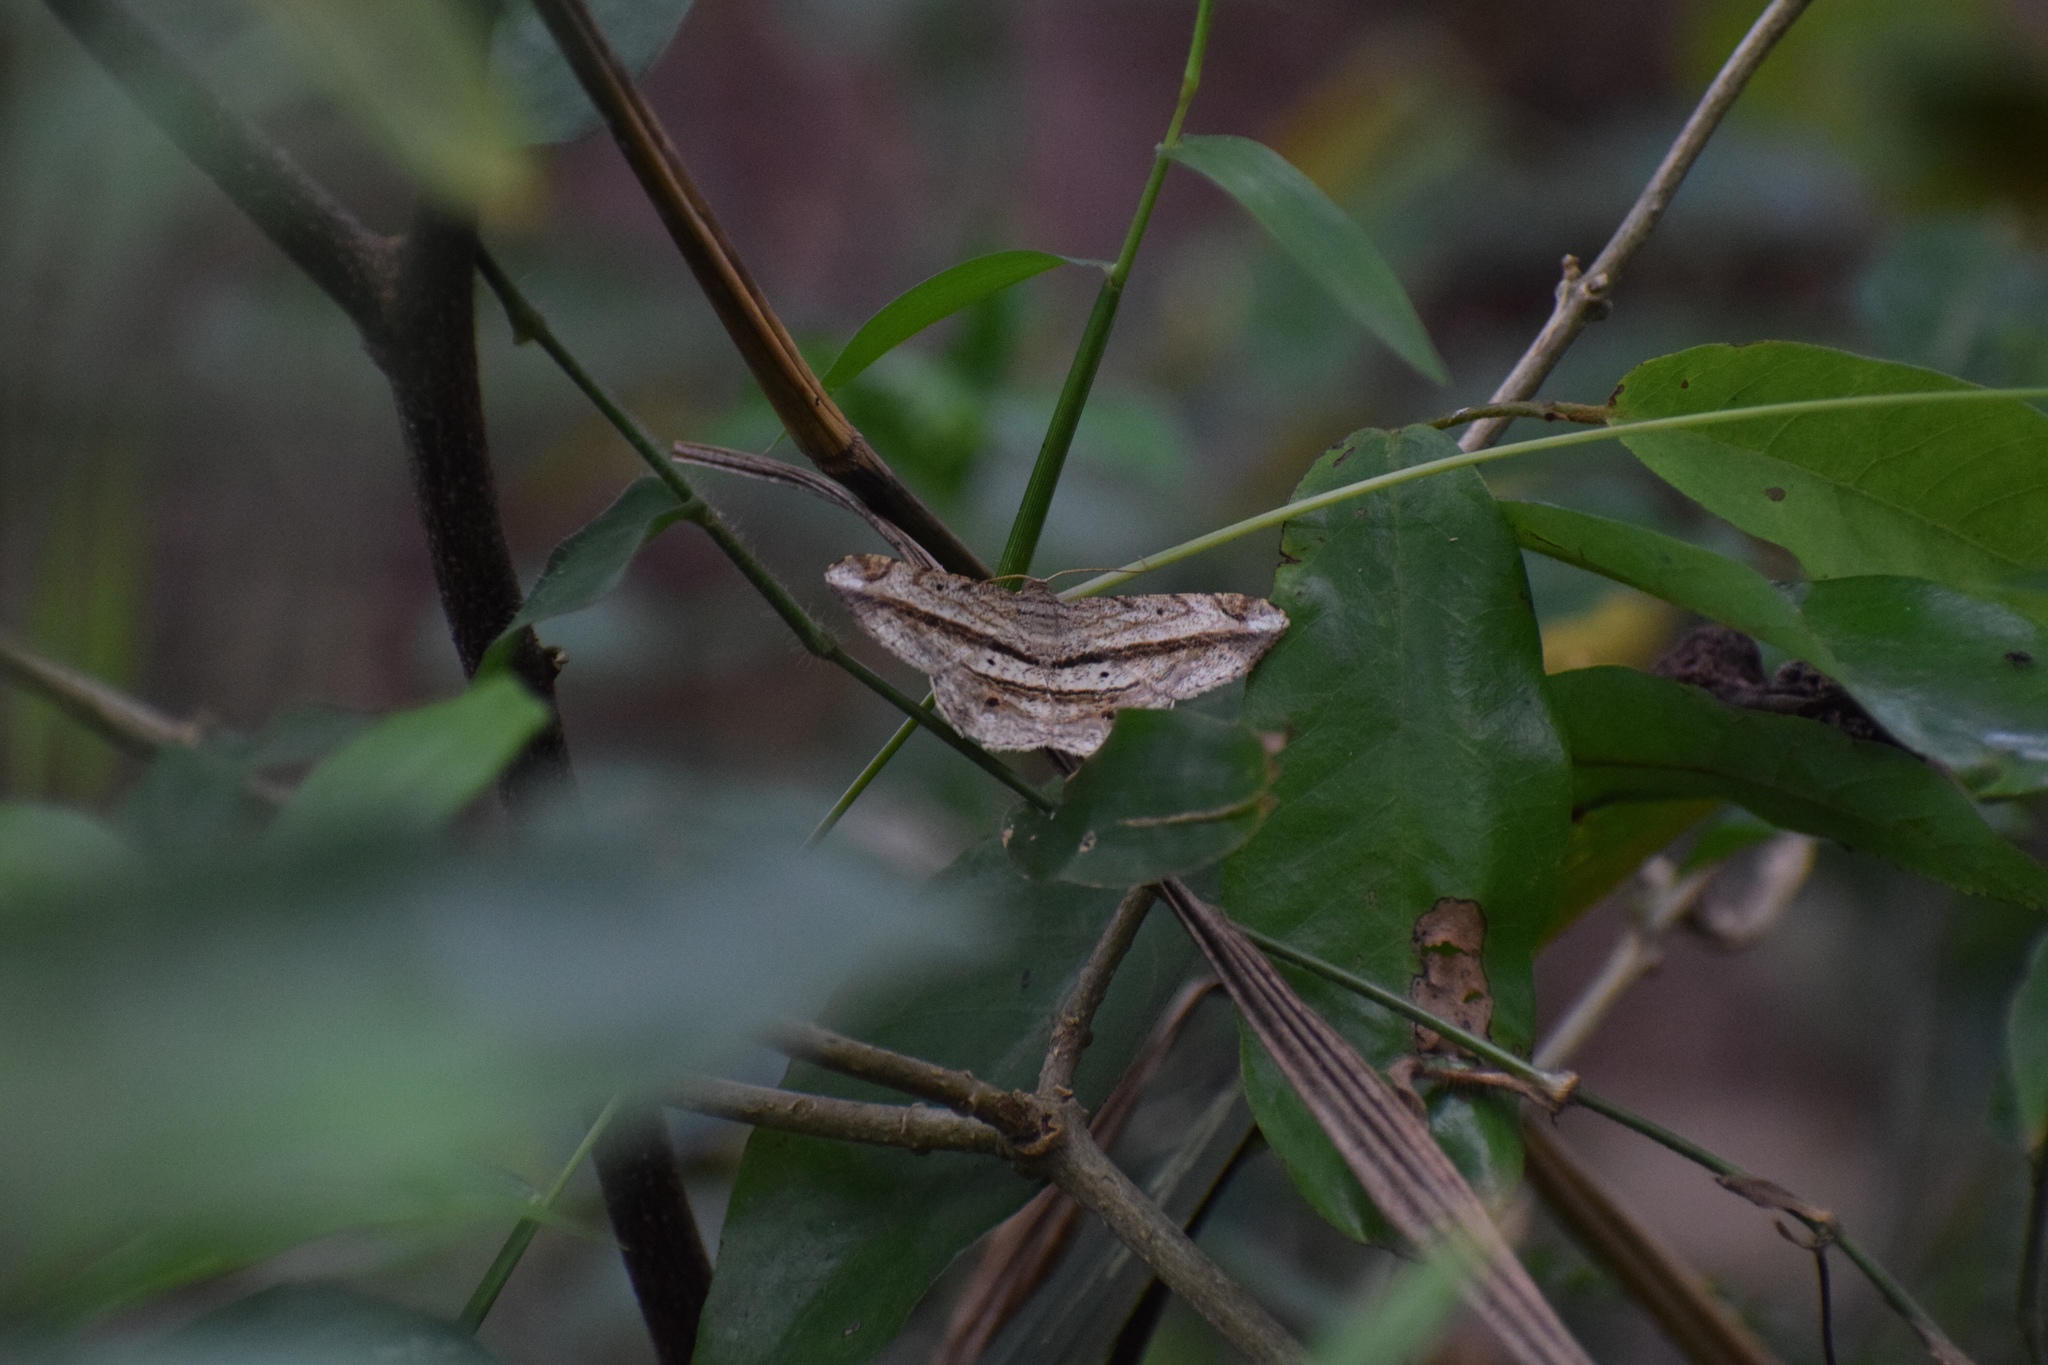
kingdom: Animalia
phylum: Arthropoda
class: Insecta
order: Lepidoptera
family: Geometridae
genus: Chiasmia
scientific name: Chiasmia rectistriaria
